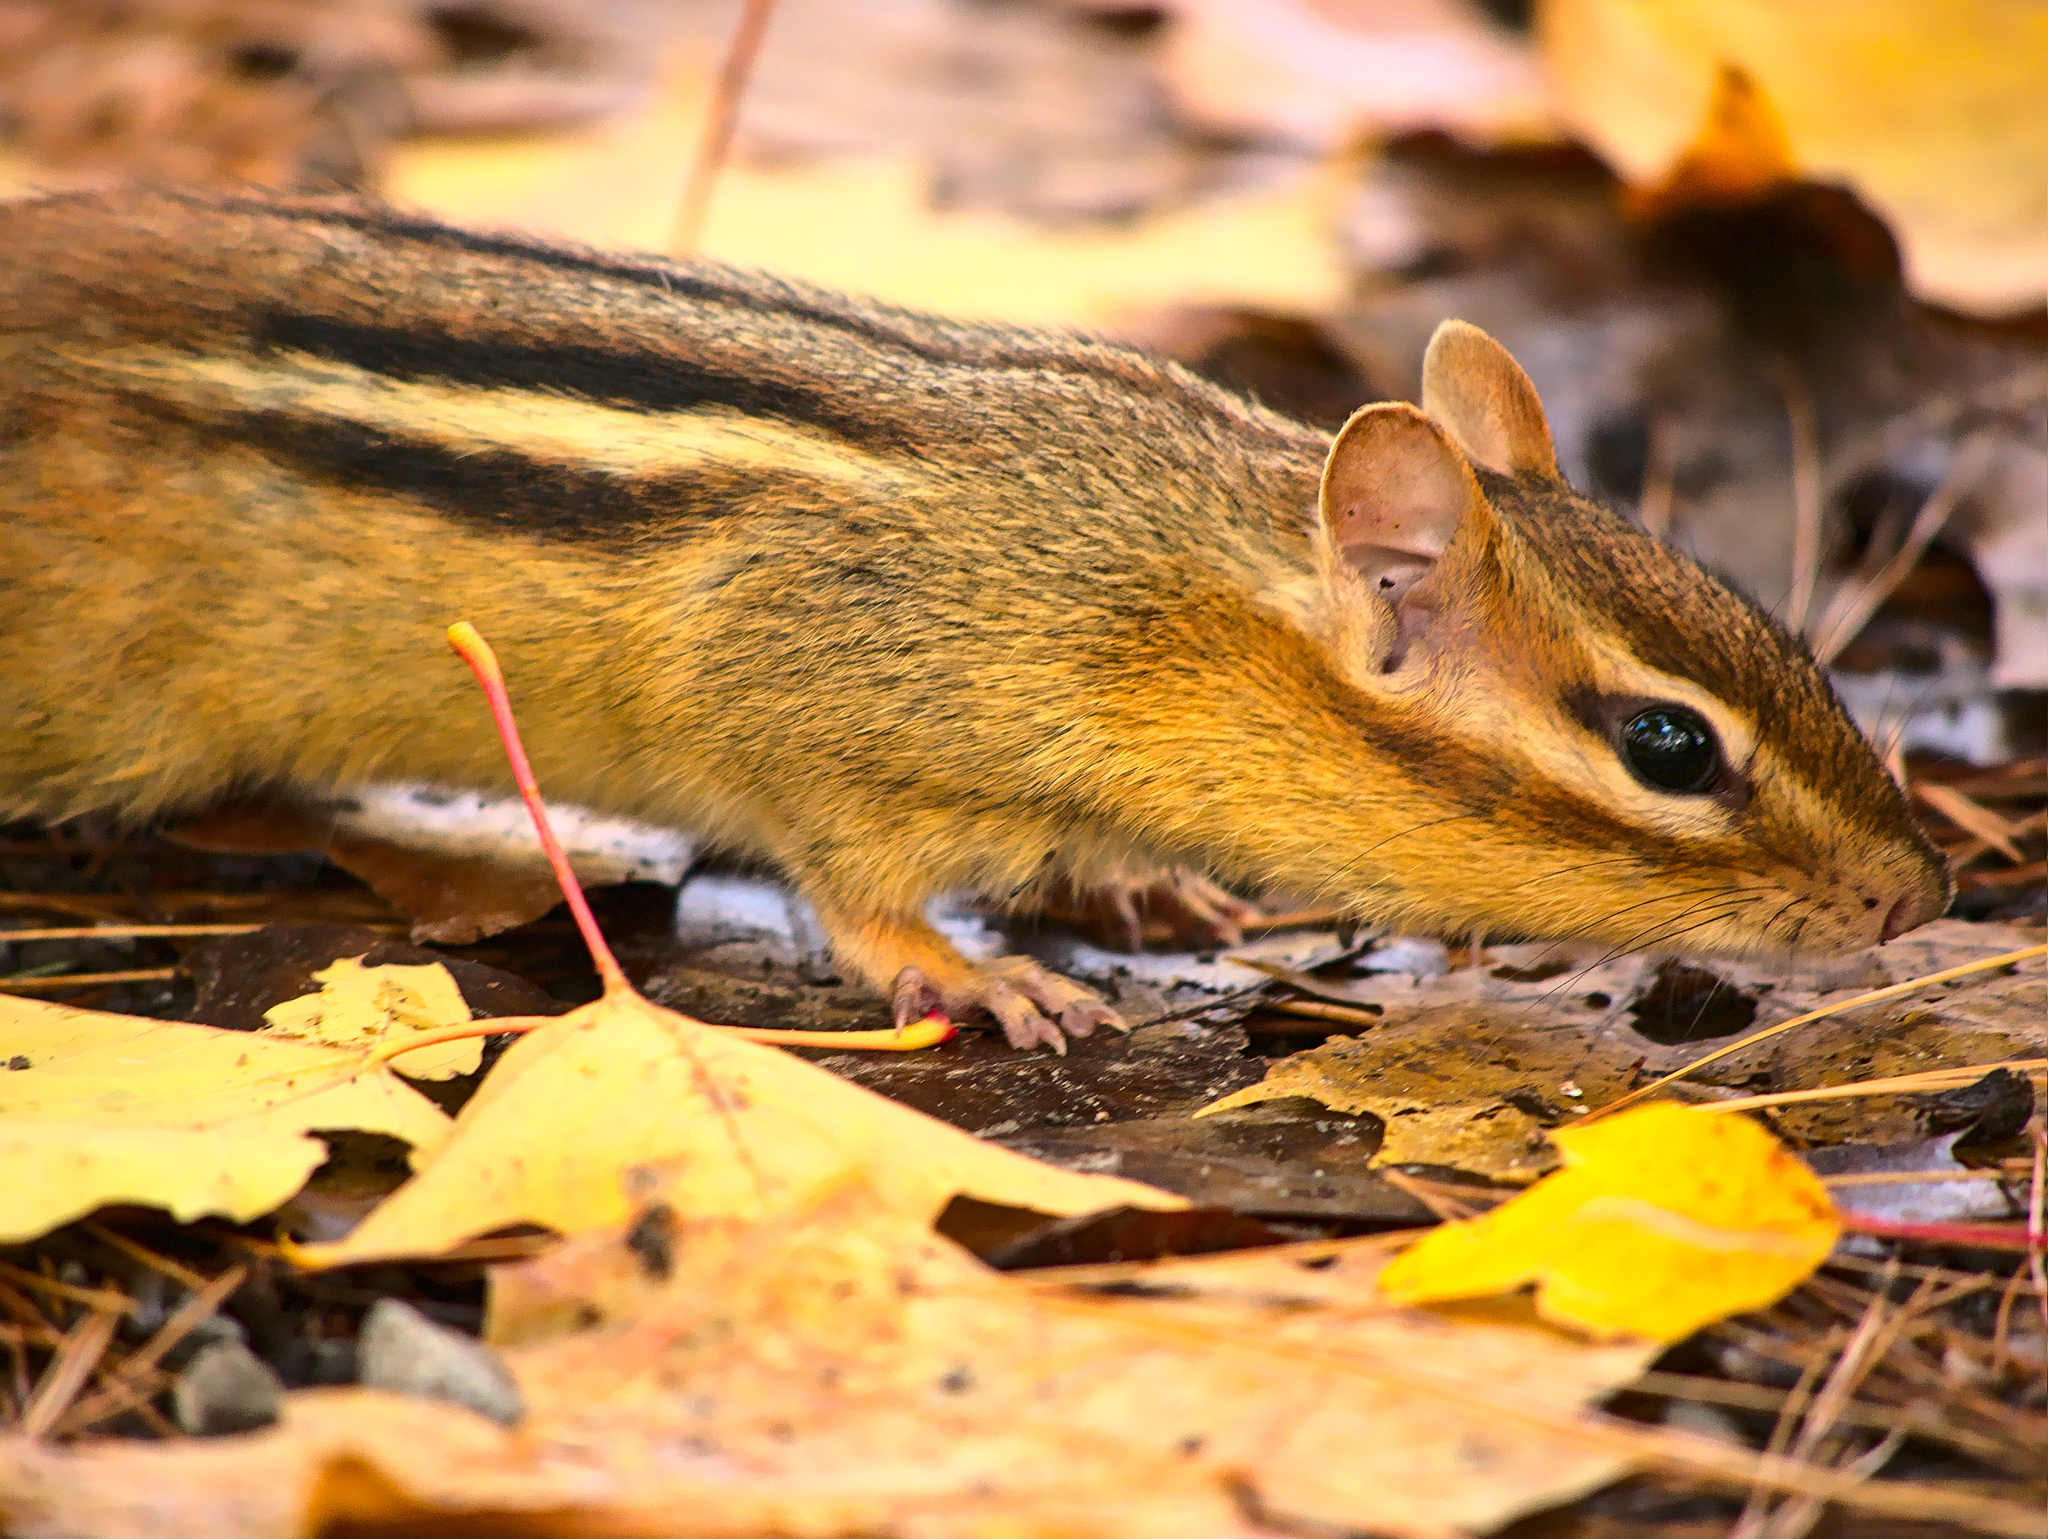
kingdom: Animalia
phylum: Chordata
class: Mammalia
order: Rodentia
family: Sciuridae
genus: Tamias
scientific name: Tamias striatus
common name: Eastern chipmunk
